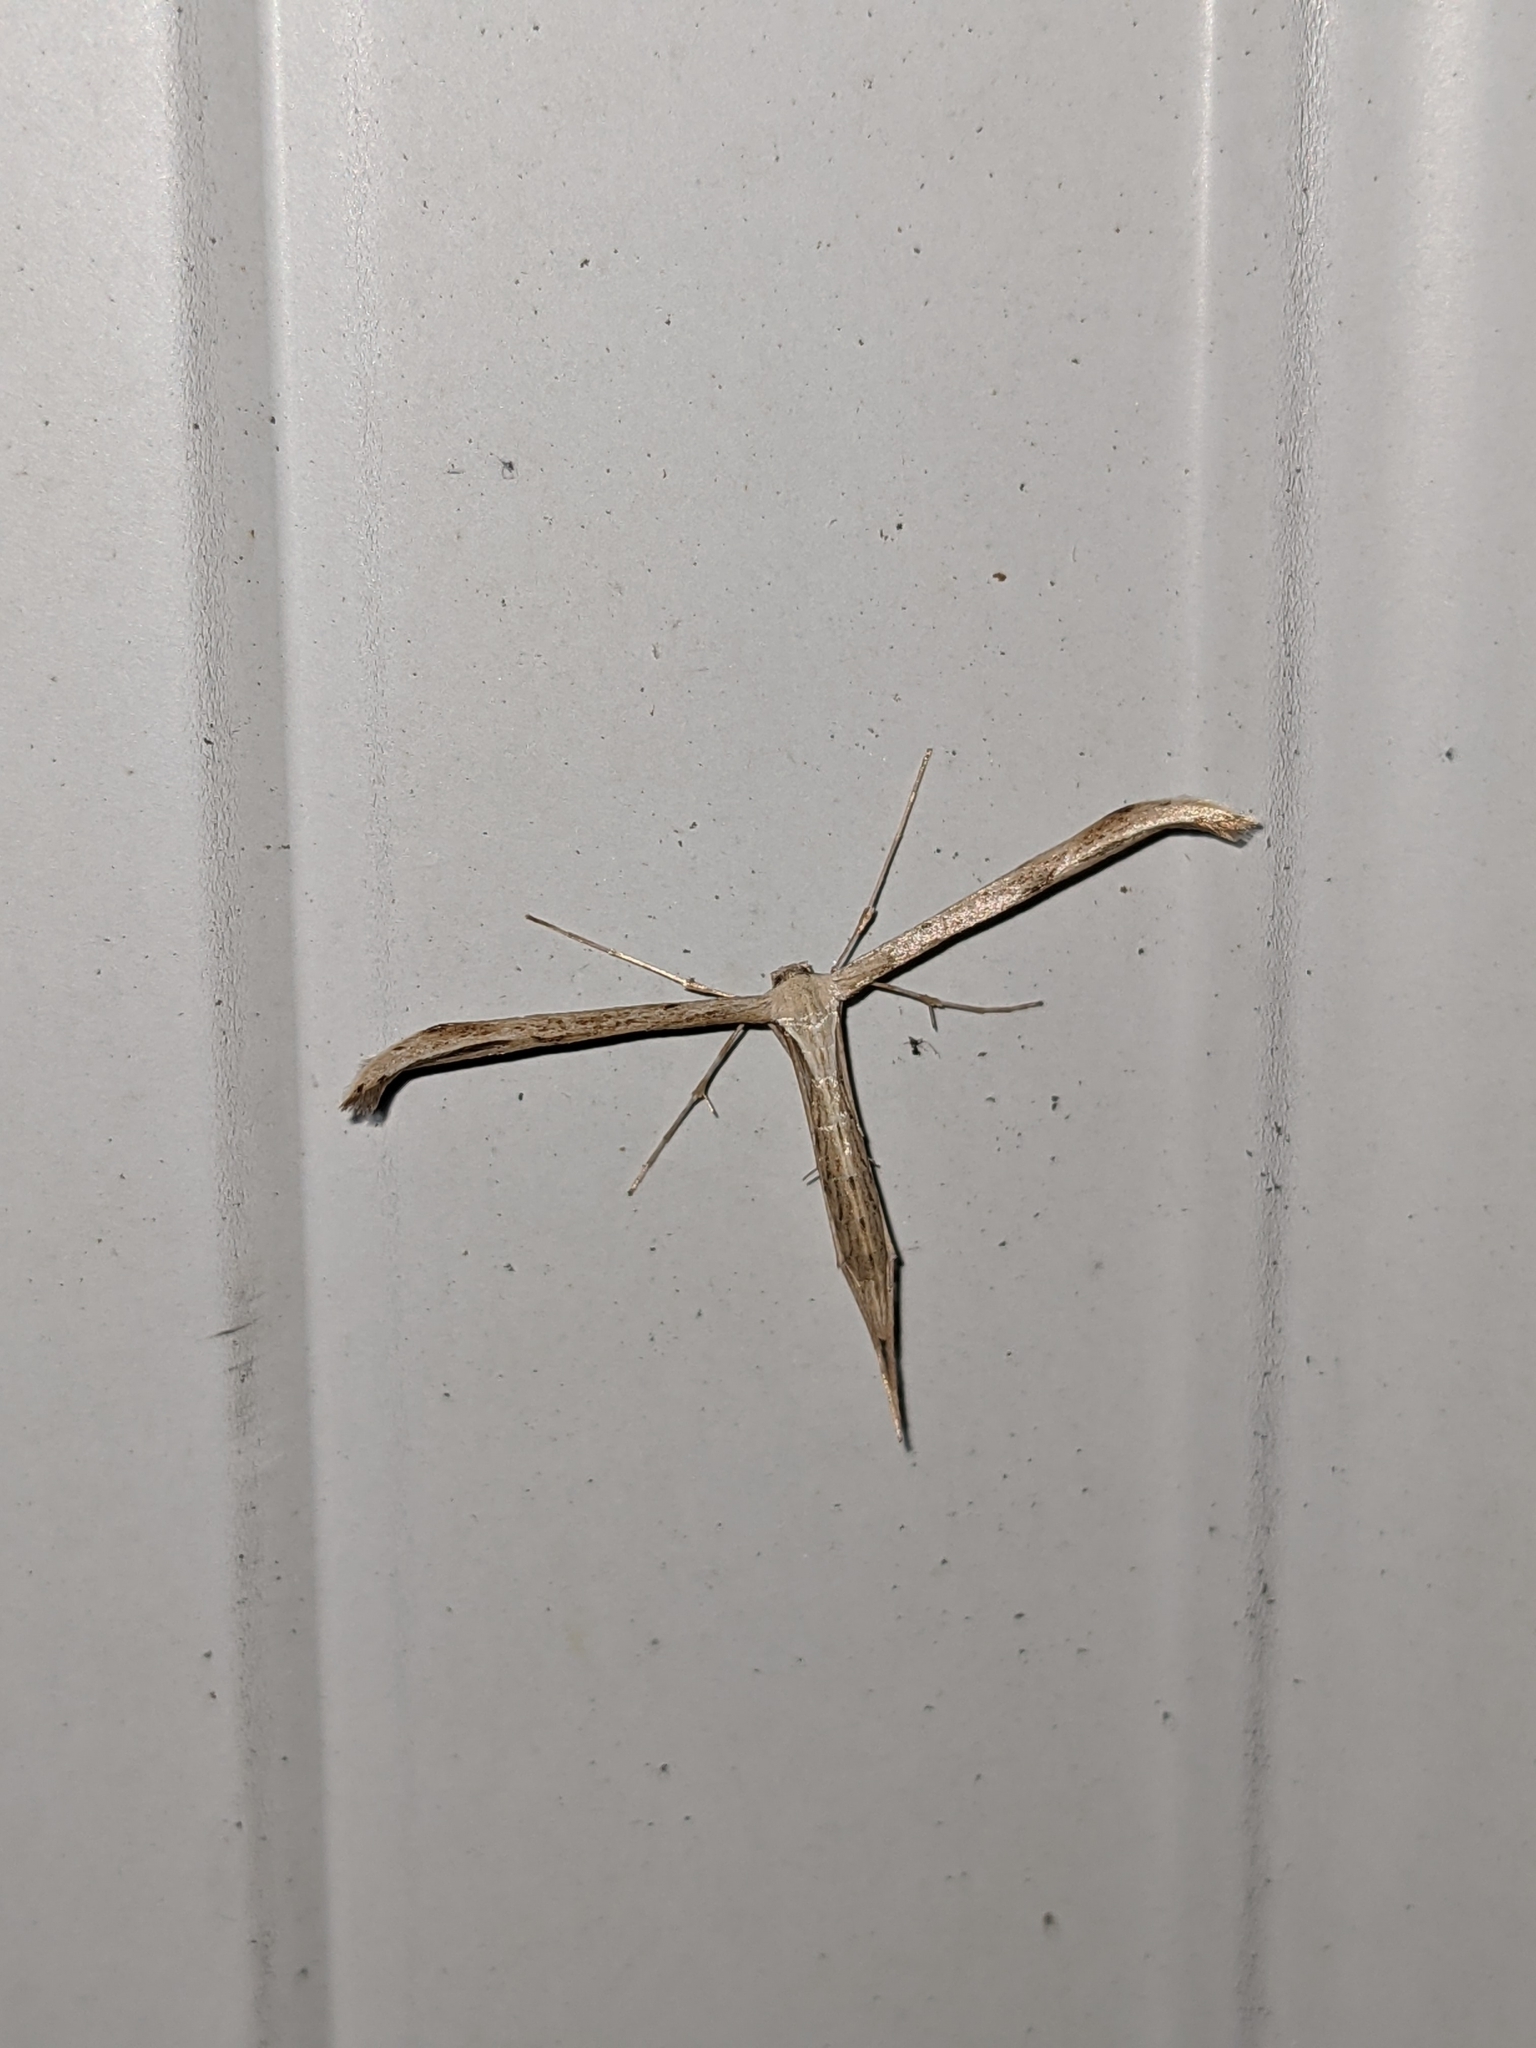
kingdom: Animalia
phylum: Arthropoda
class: Insecta
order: Lepidoptera
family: Pterophoridae
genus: Emmelina
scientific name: Emmelina monodactyla
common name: Common plume
